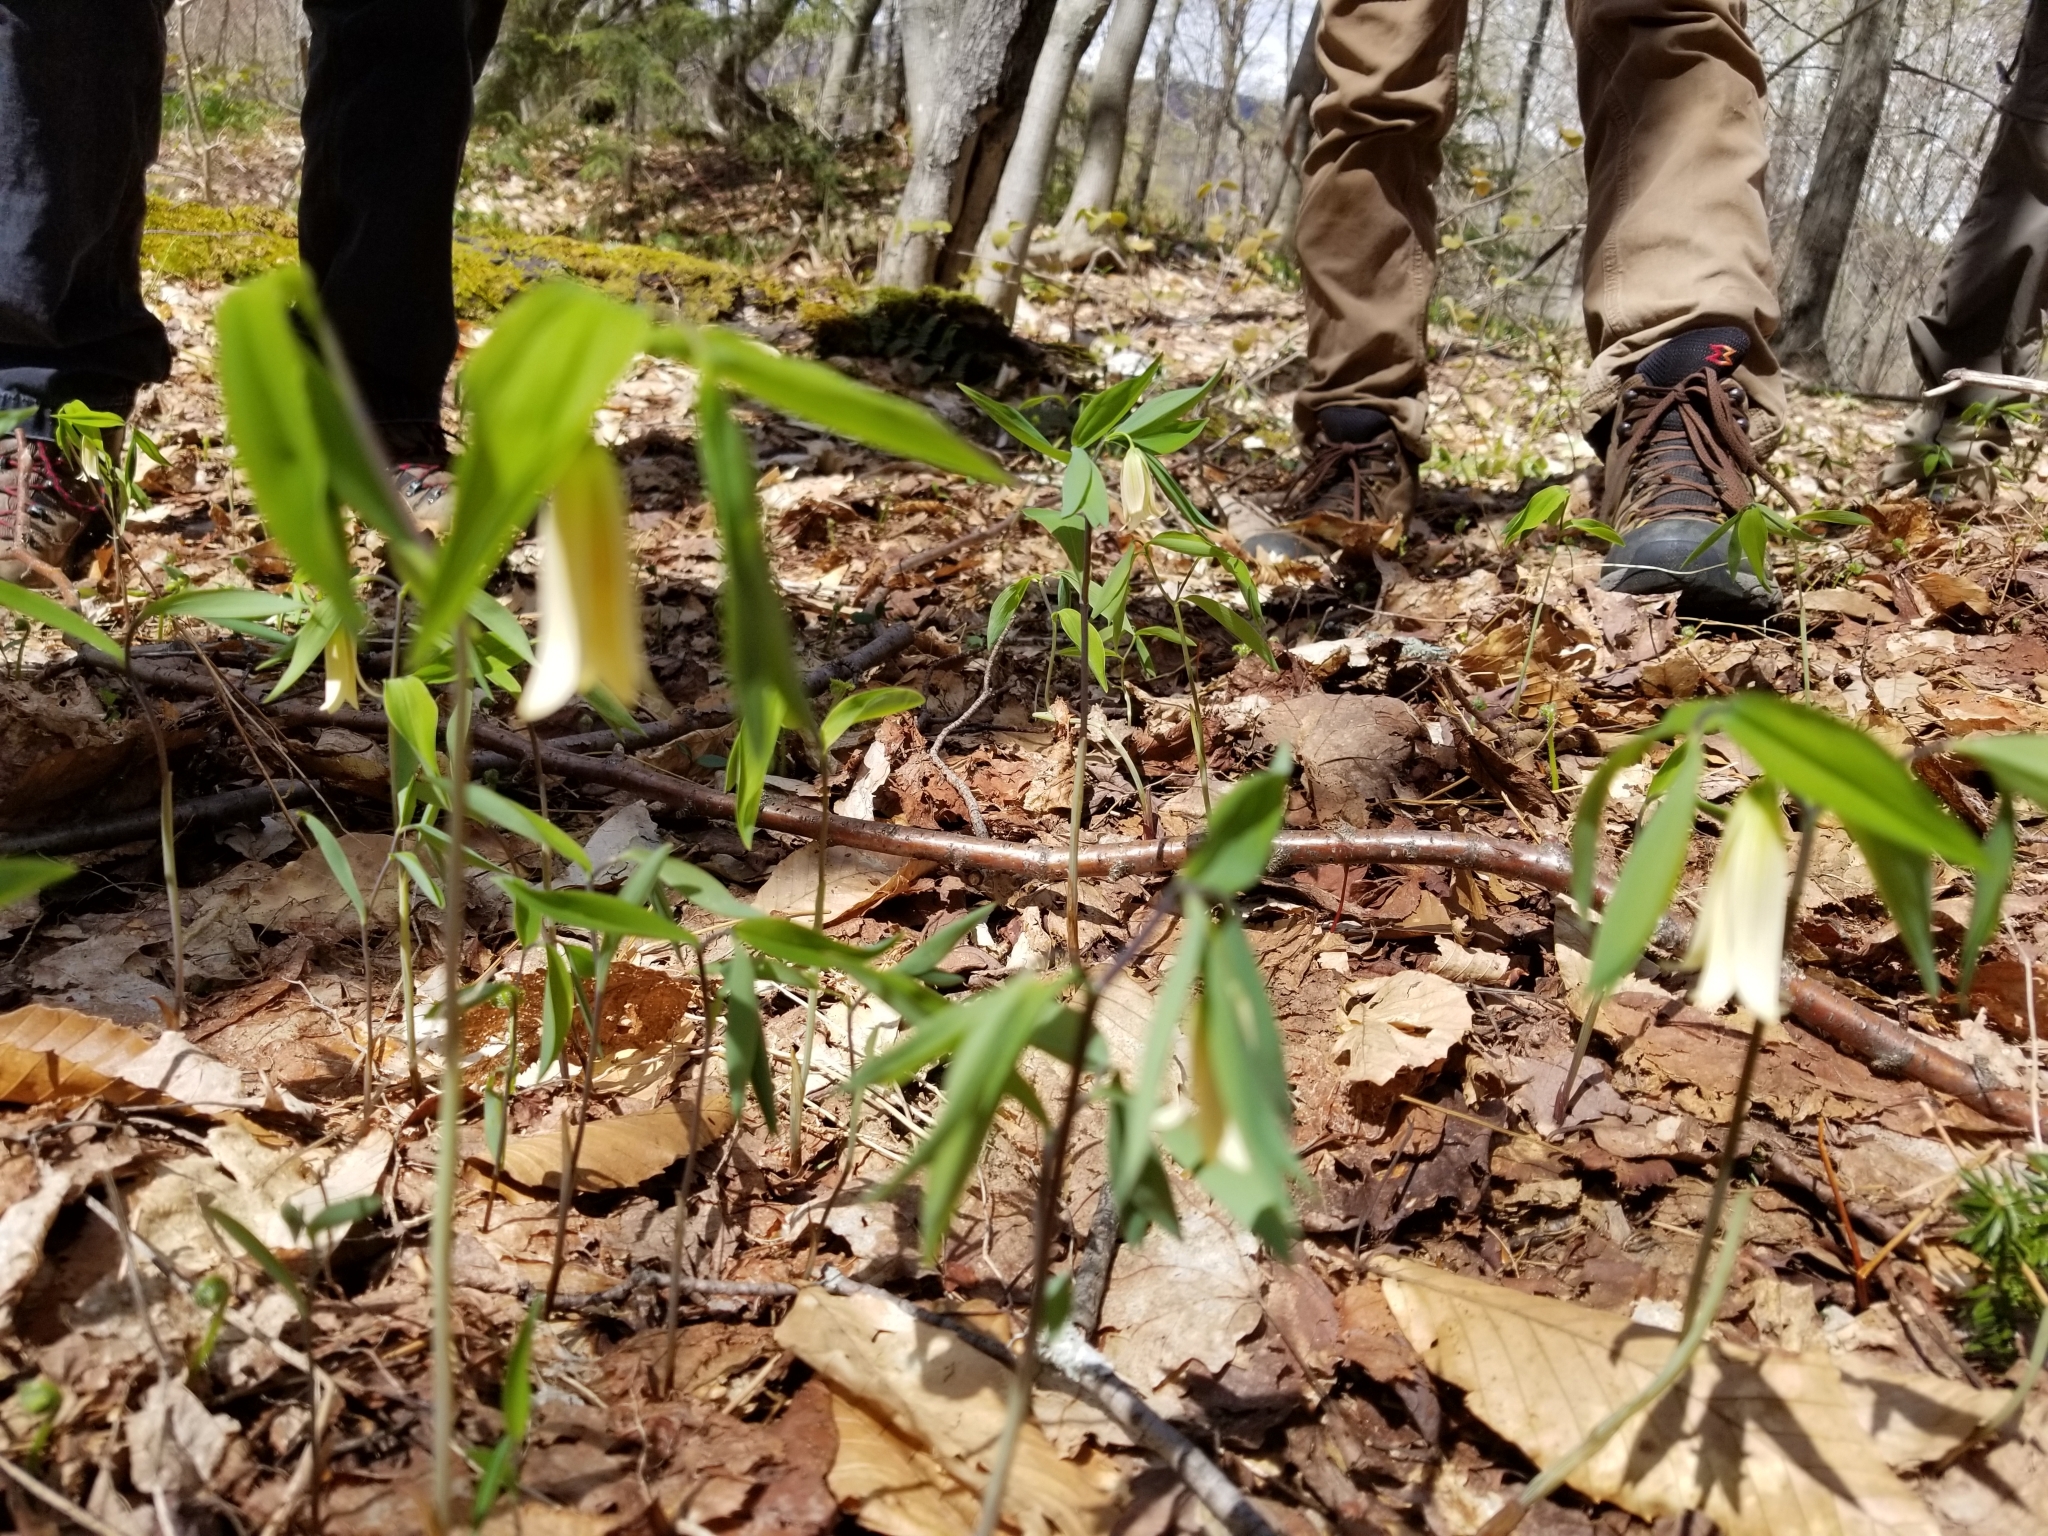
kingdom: Plantae
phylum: Tracheophyta
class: Liliopsida
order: Liliales
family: Colchicaceae
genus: Uvularia
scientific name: Uvularia sessilifolia
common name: Straw-lily
